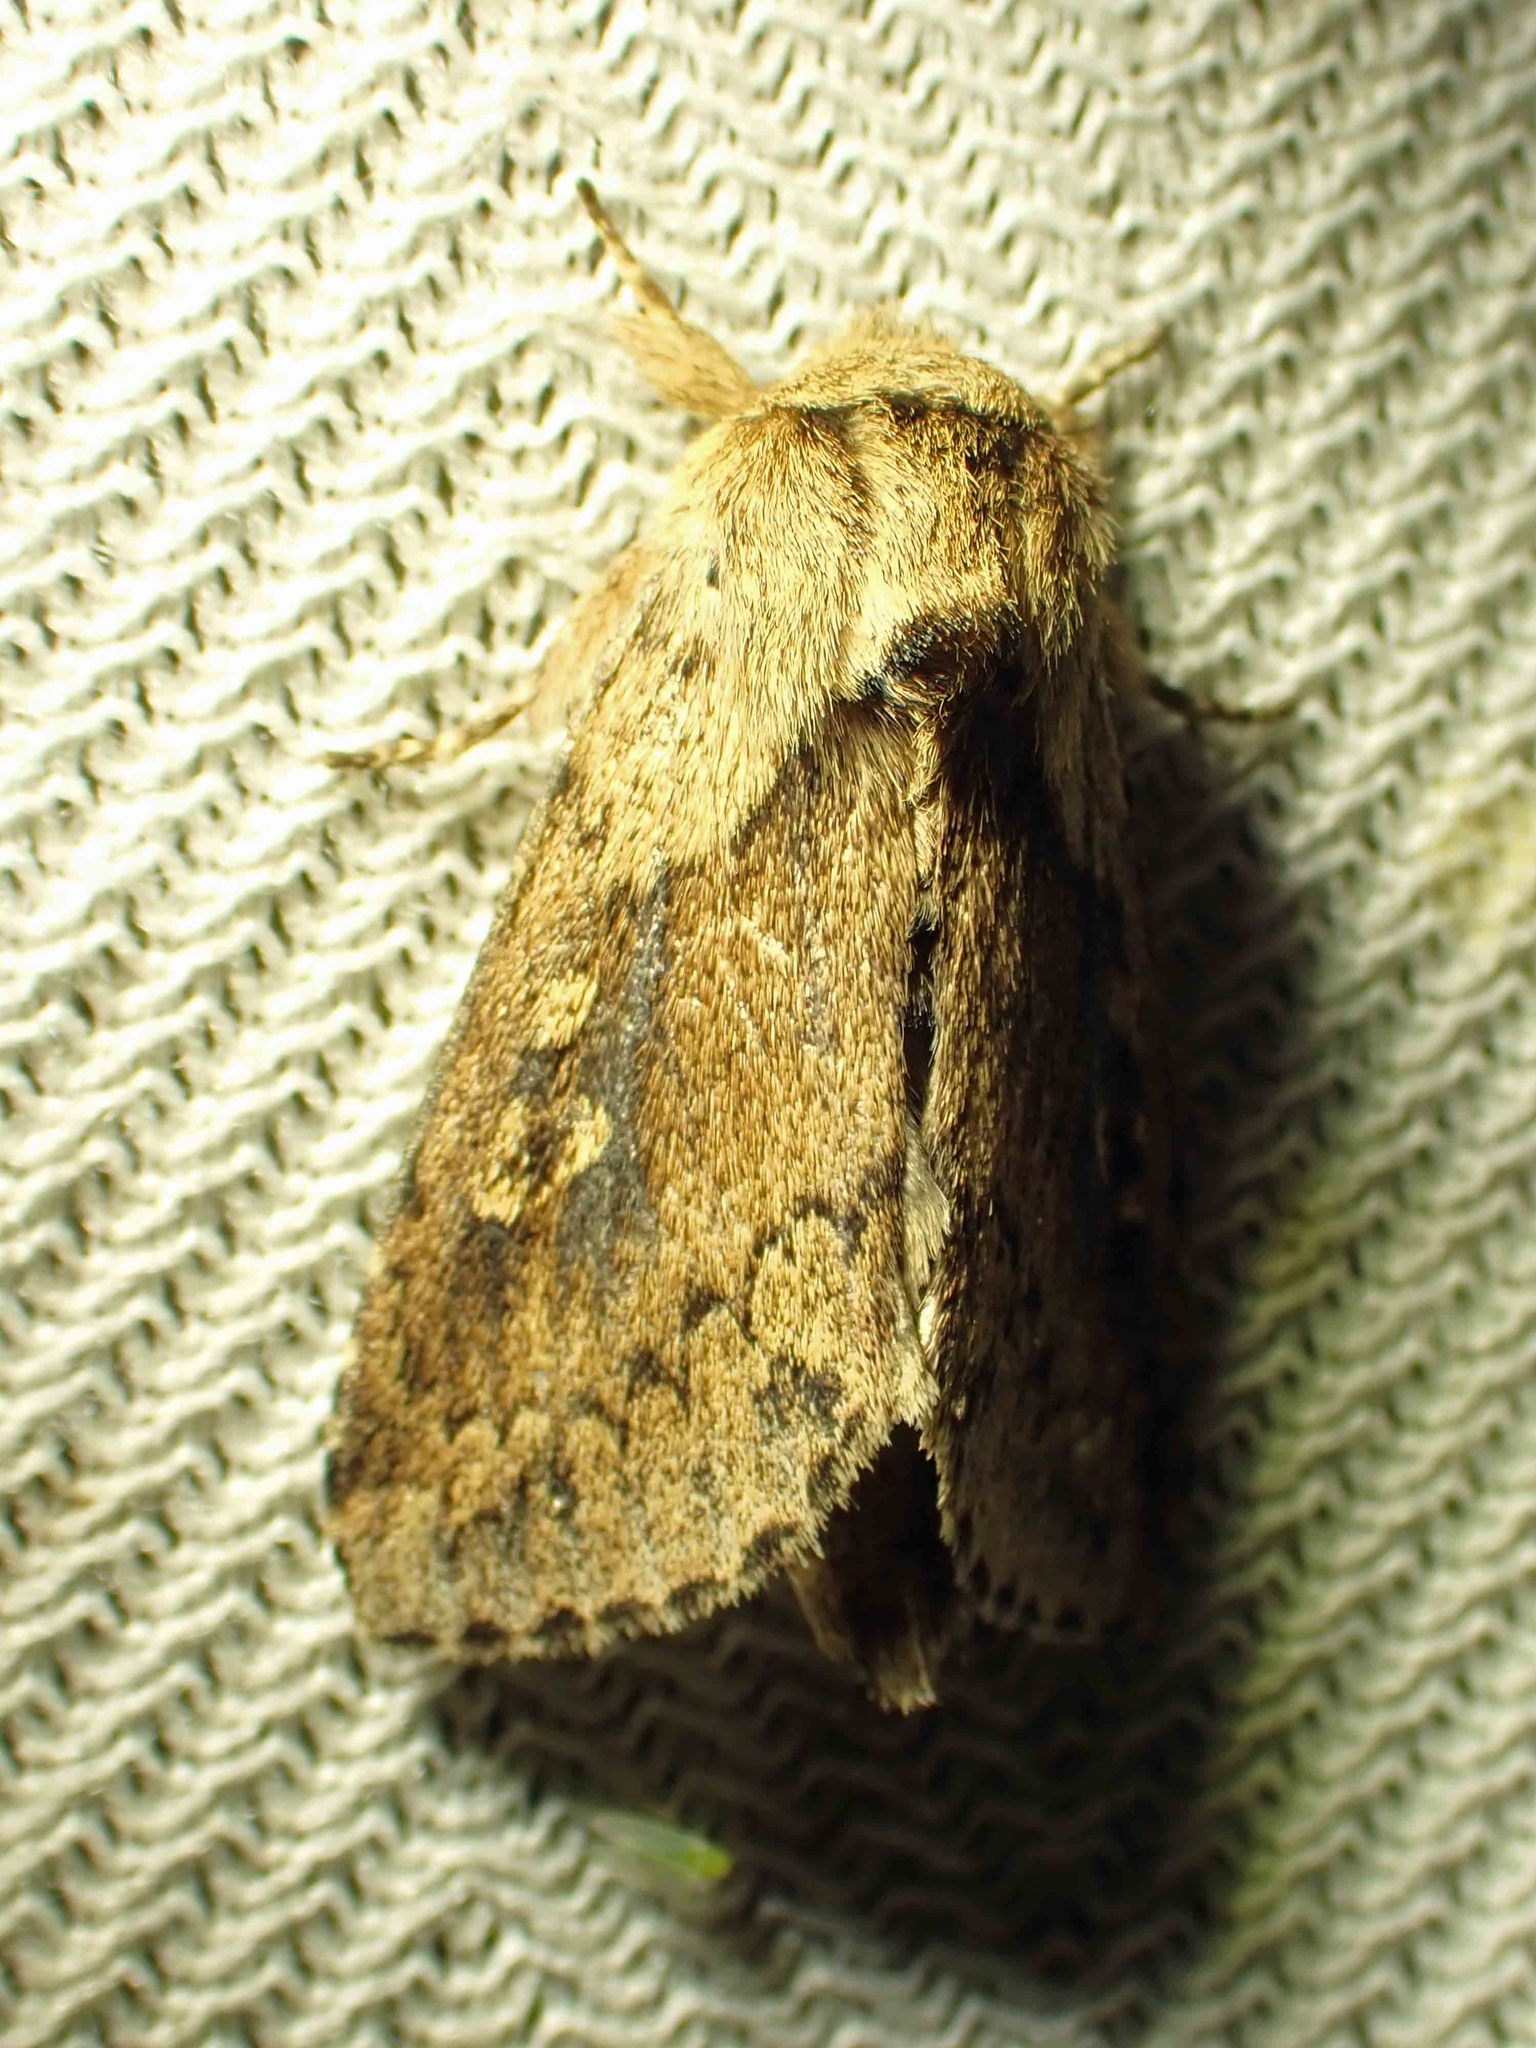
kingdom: Animalia
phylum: Arthropoda
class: Insecta
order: Lepidoptera
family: Noctuidae
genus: Bellura
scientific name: Bellura vulnifica
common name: Black-tailed diver moth
